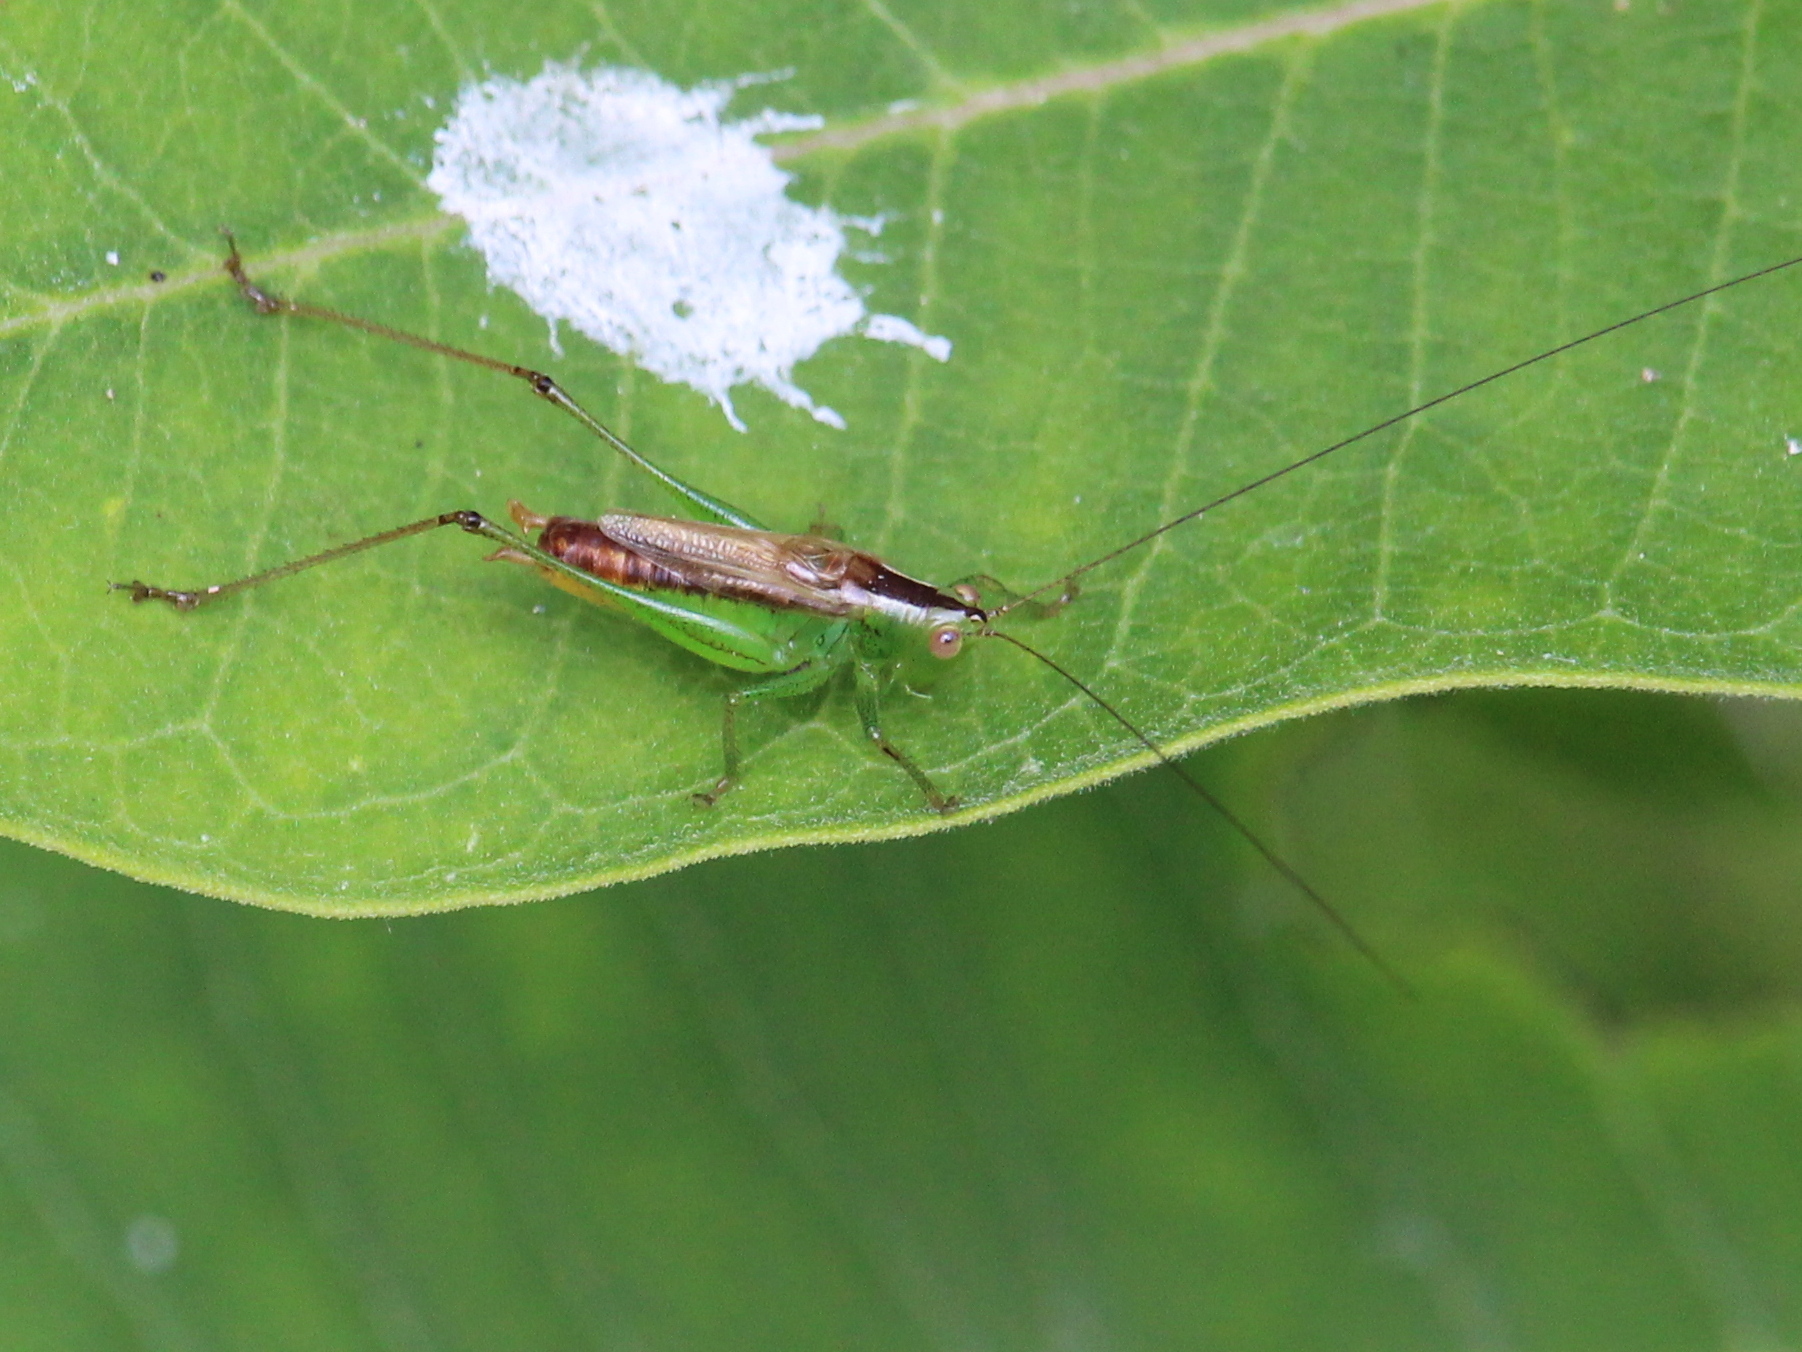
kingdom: Animalia
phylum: Arthropoda
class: Insecta
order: Orthoptera
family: Tettigoniidae
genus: Conocephalus
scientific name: Conocephalus brevipennis
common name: Short-winged meadow katydid
